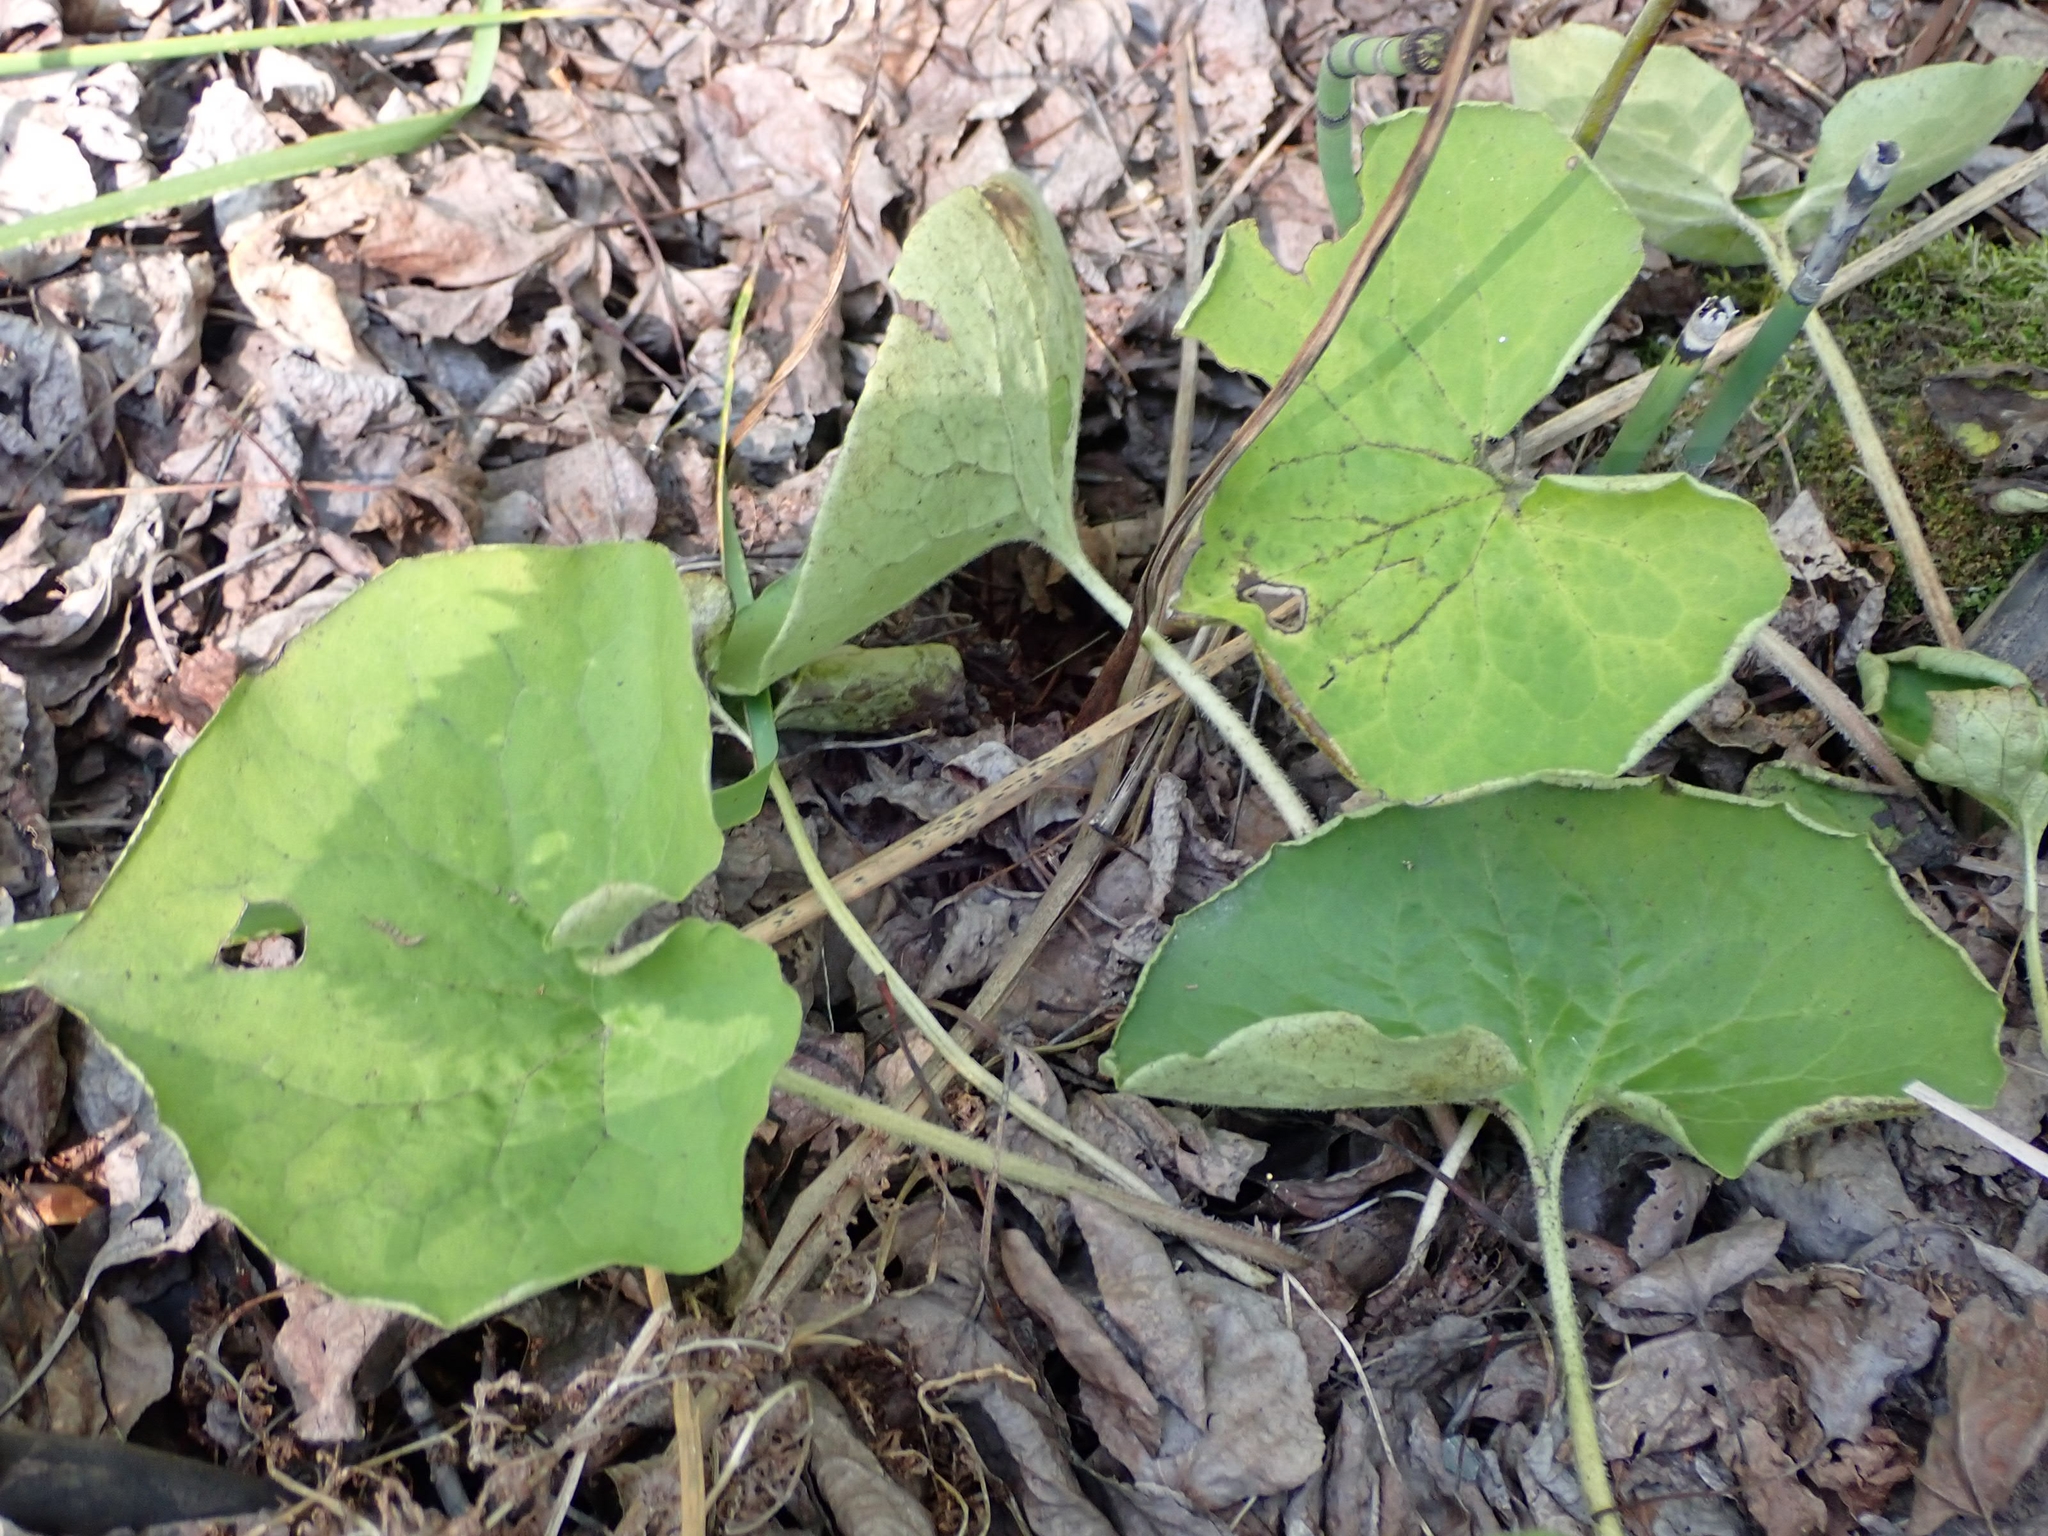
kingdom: Plantae
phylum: Tracheophyta
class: Magnoliopsida
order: Piperales
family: Aristolochiaceae
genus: Asarum
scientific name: Asarum canadense
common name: Wild ginger
